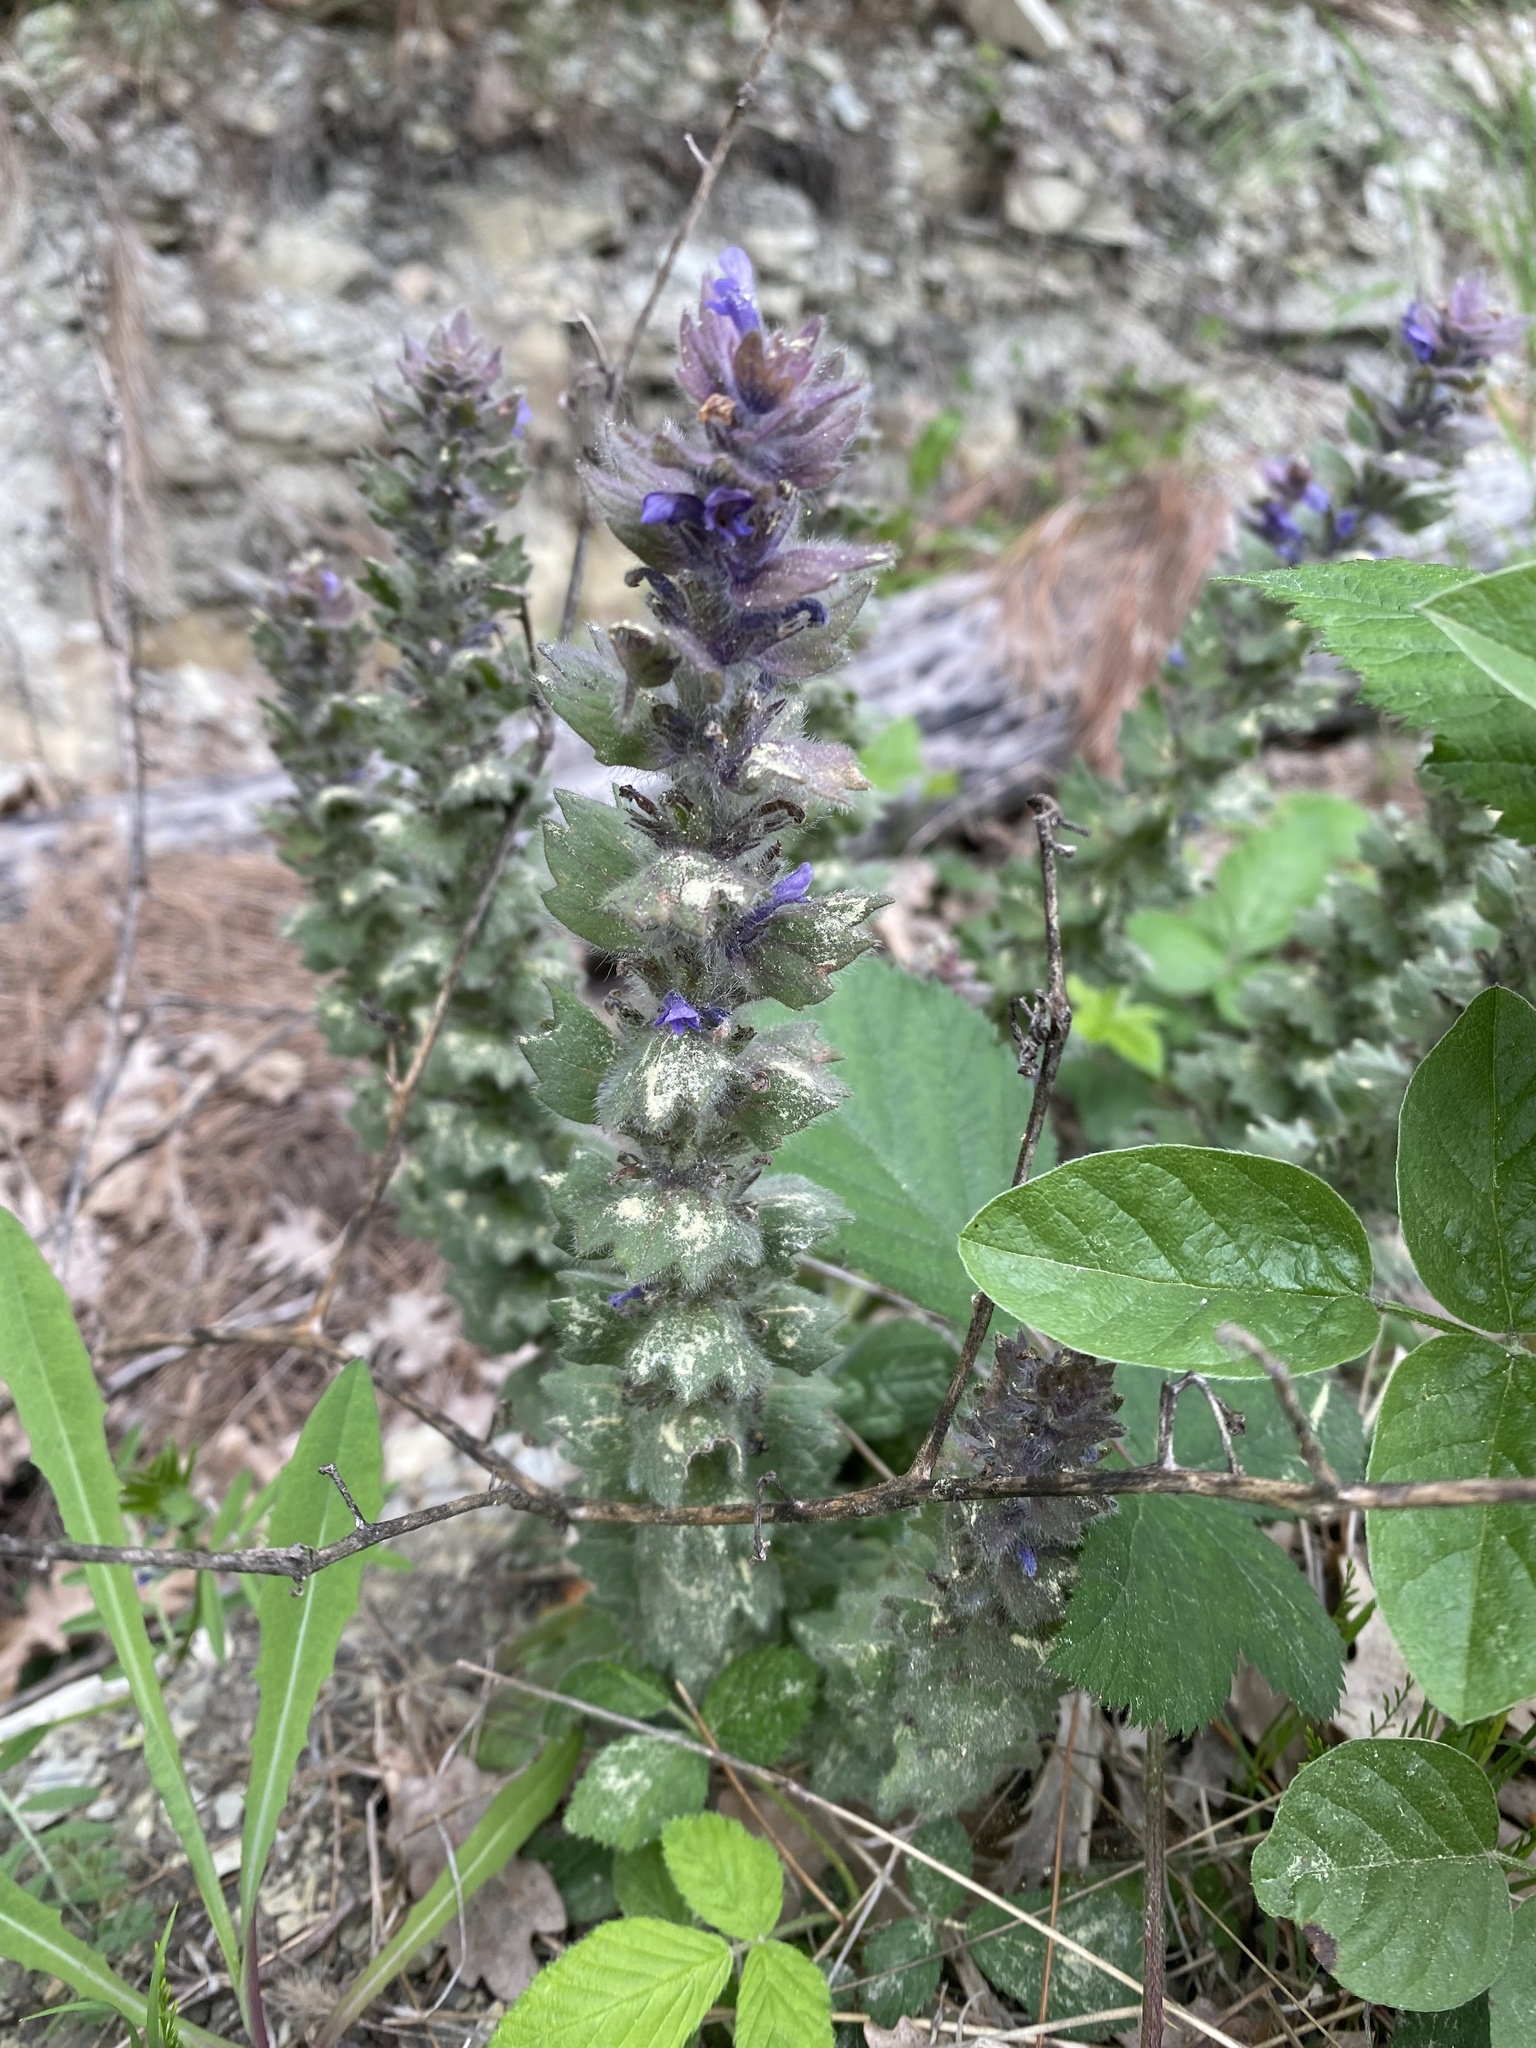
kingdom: Plantae
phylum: Tracheophyta
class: Magnoliopsida
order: Lamiales
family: Lamiaceae
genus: Ajuga
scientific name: Ajuga orientalis
